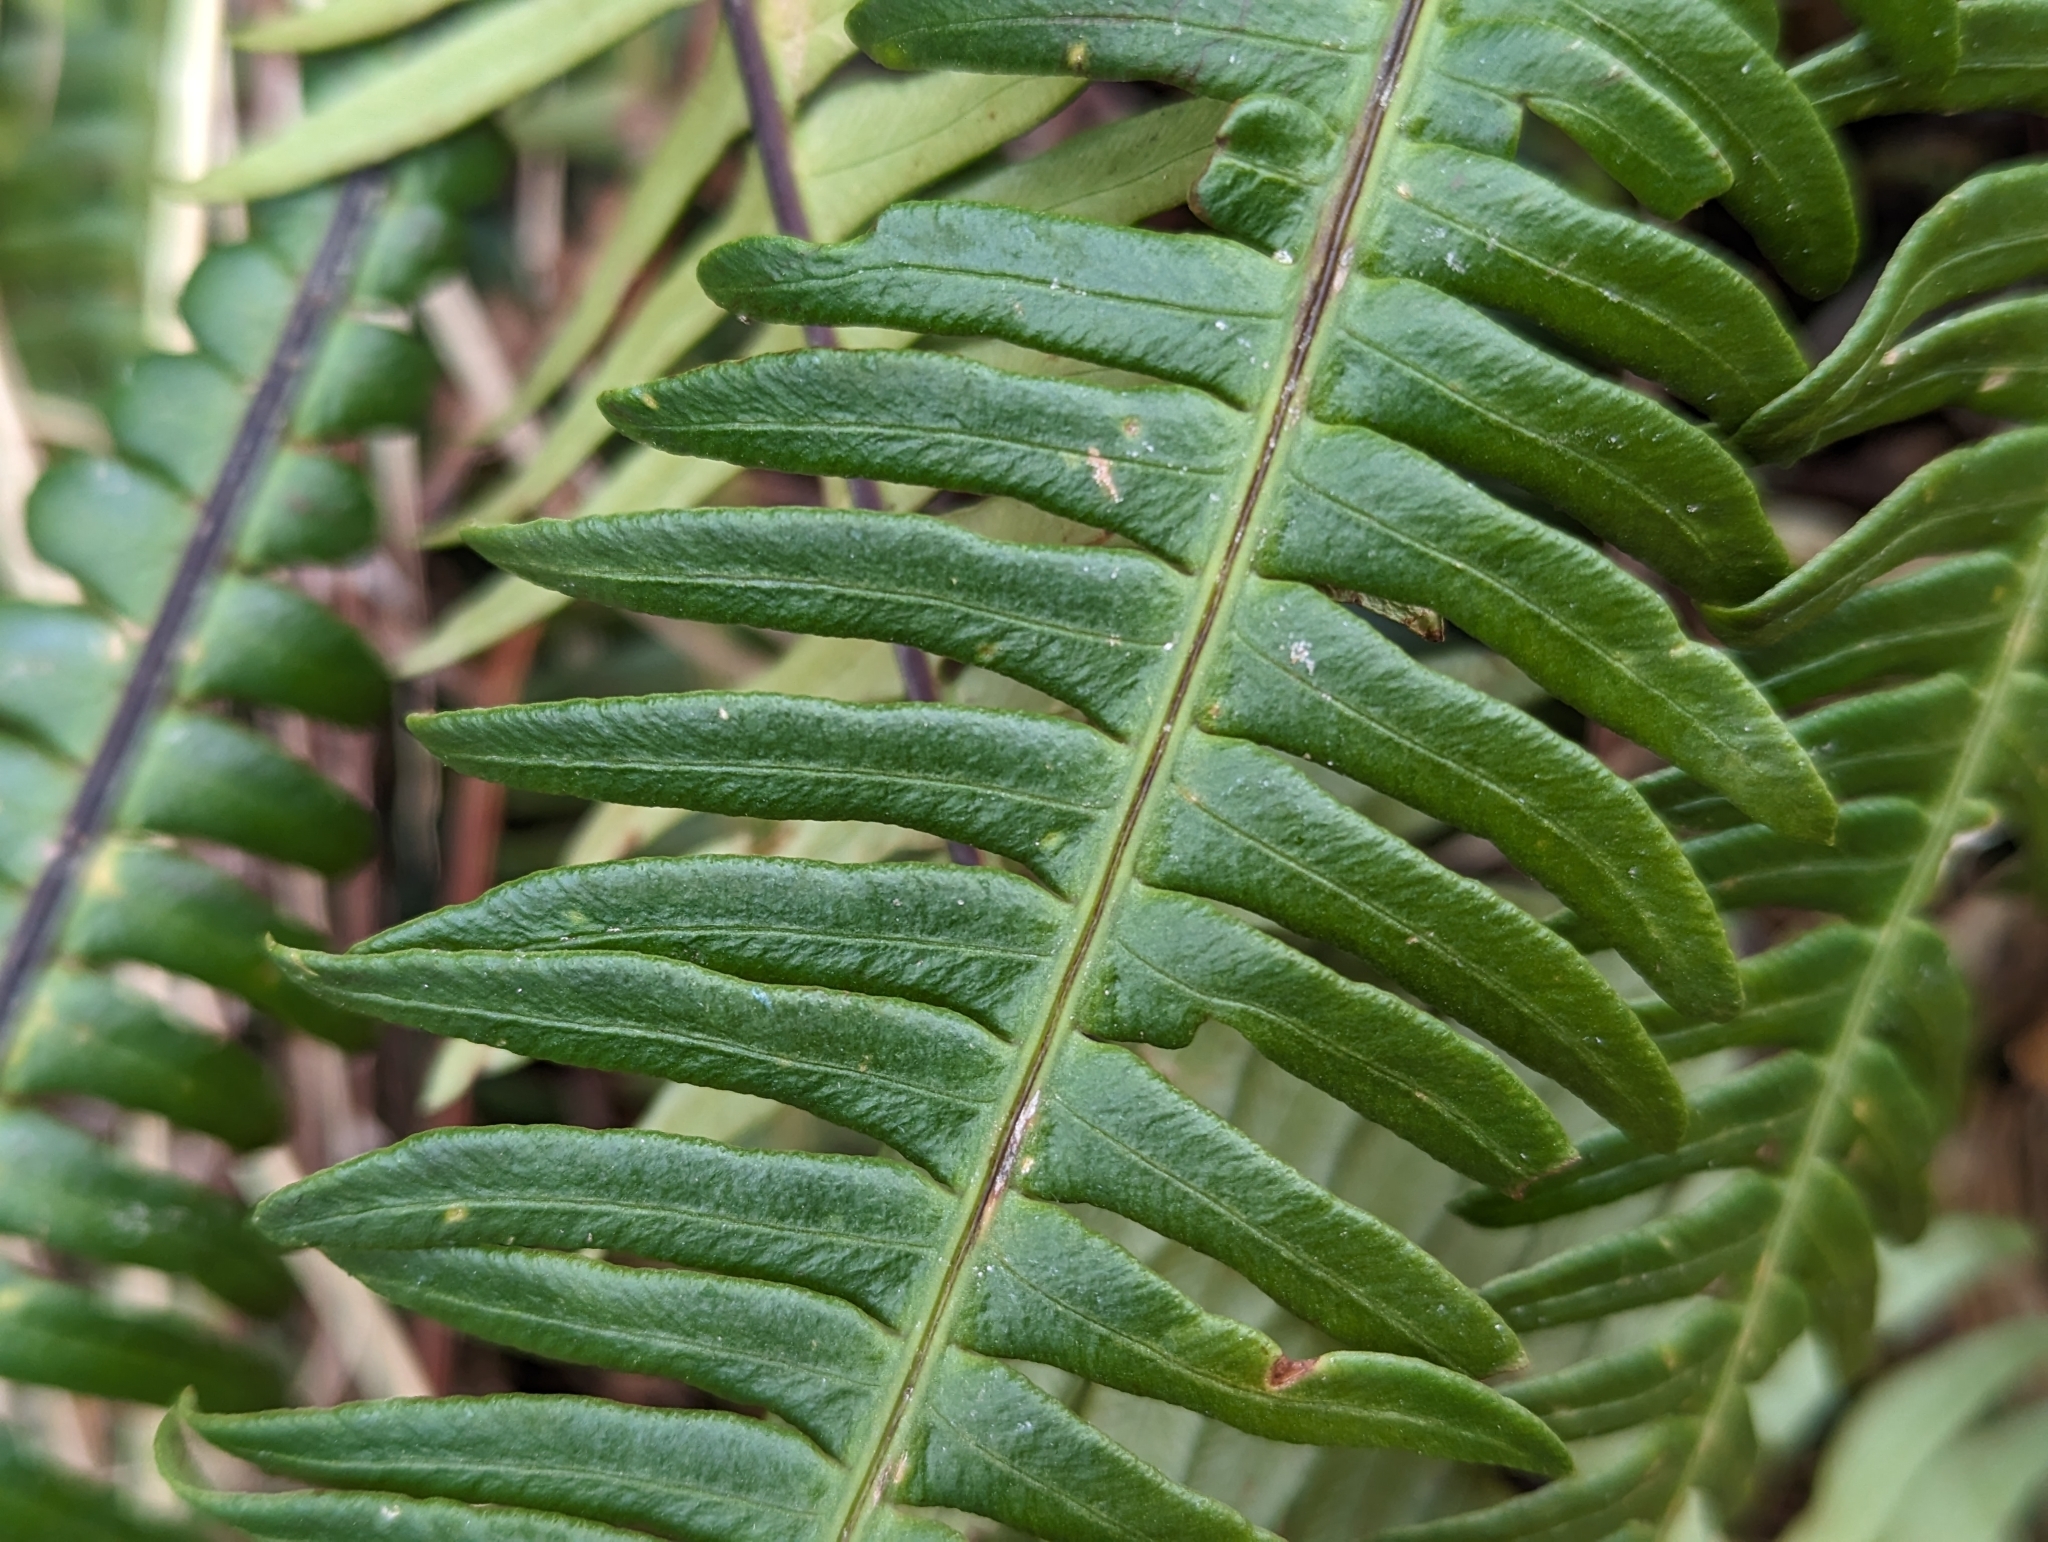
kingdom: Plantae
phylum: Tracheophyta
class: Polypodiopsida
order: Polypodiales
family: Blechnaceae
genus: Struthiopteris
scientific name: Struthiopteris spicant
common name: Deer fern
